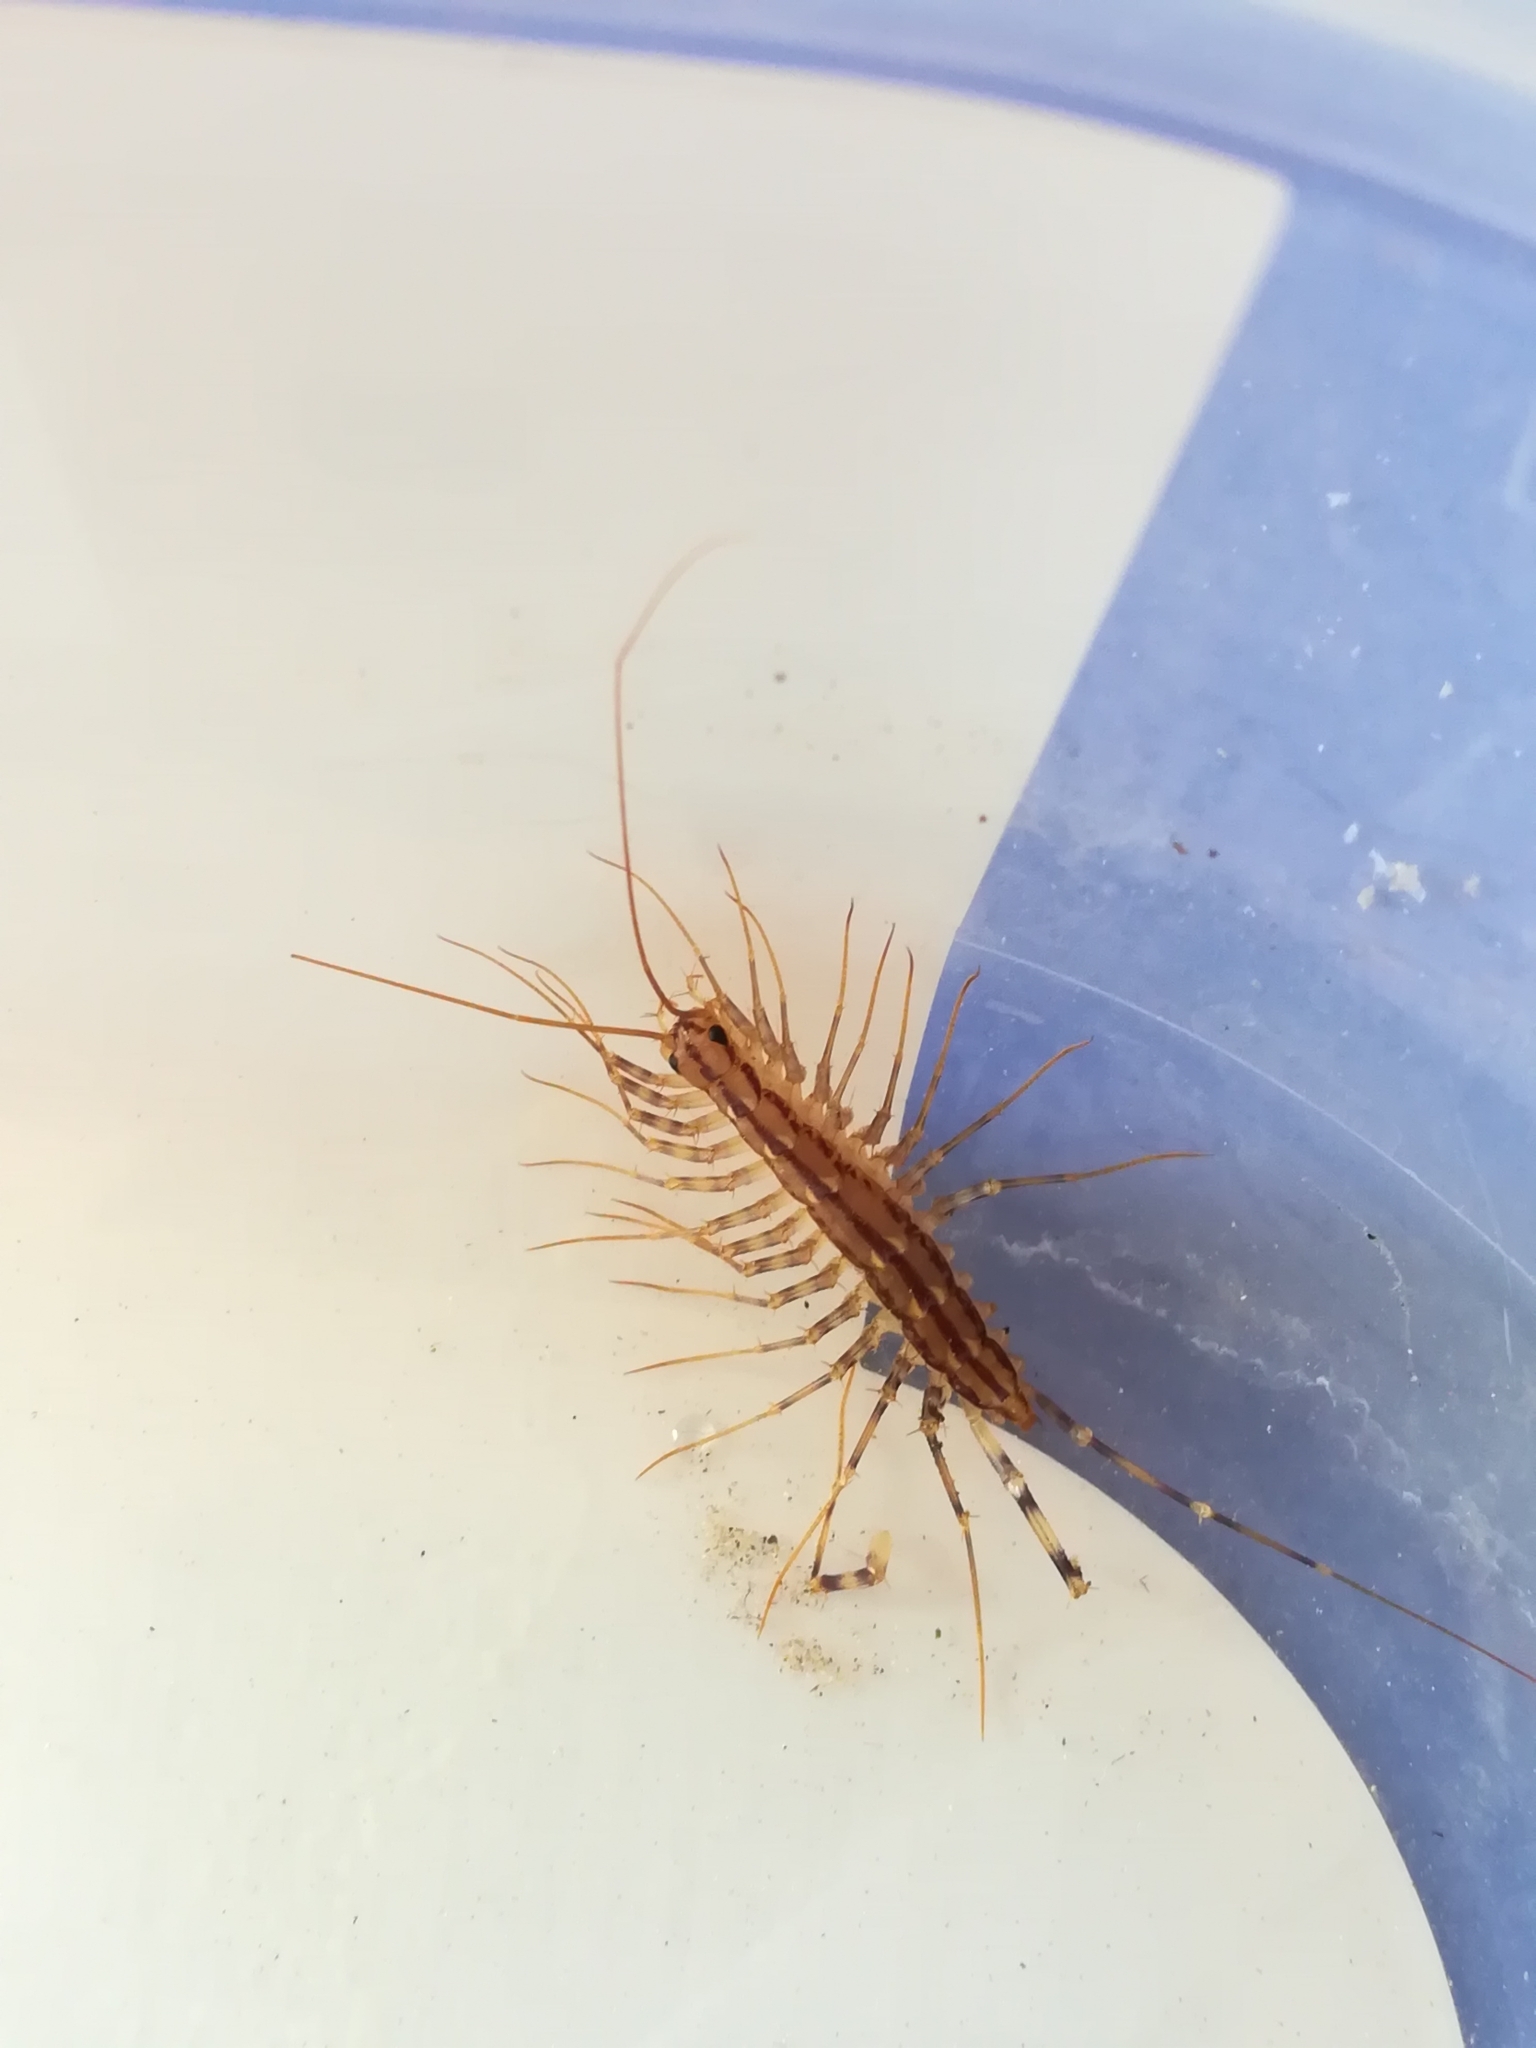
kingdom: Animalia
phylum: Arthropoda
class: Chilopoda
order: Scutigeromorpha
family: Scutigeridae
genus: Scutigera
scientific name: Scutigera coleoptrata
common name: House centipede
